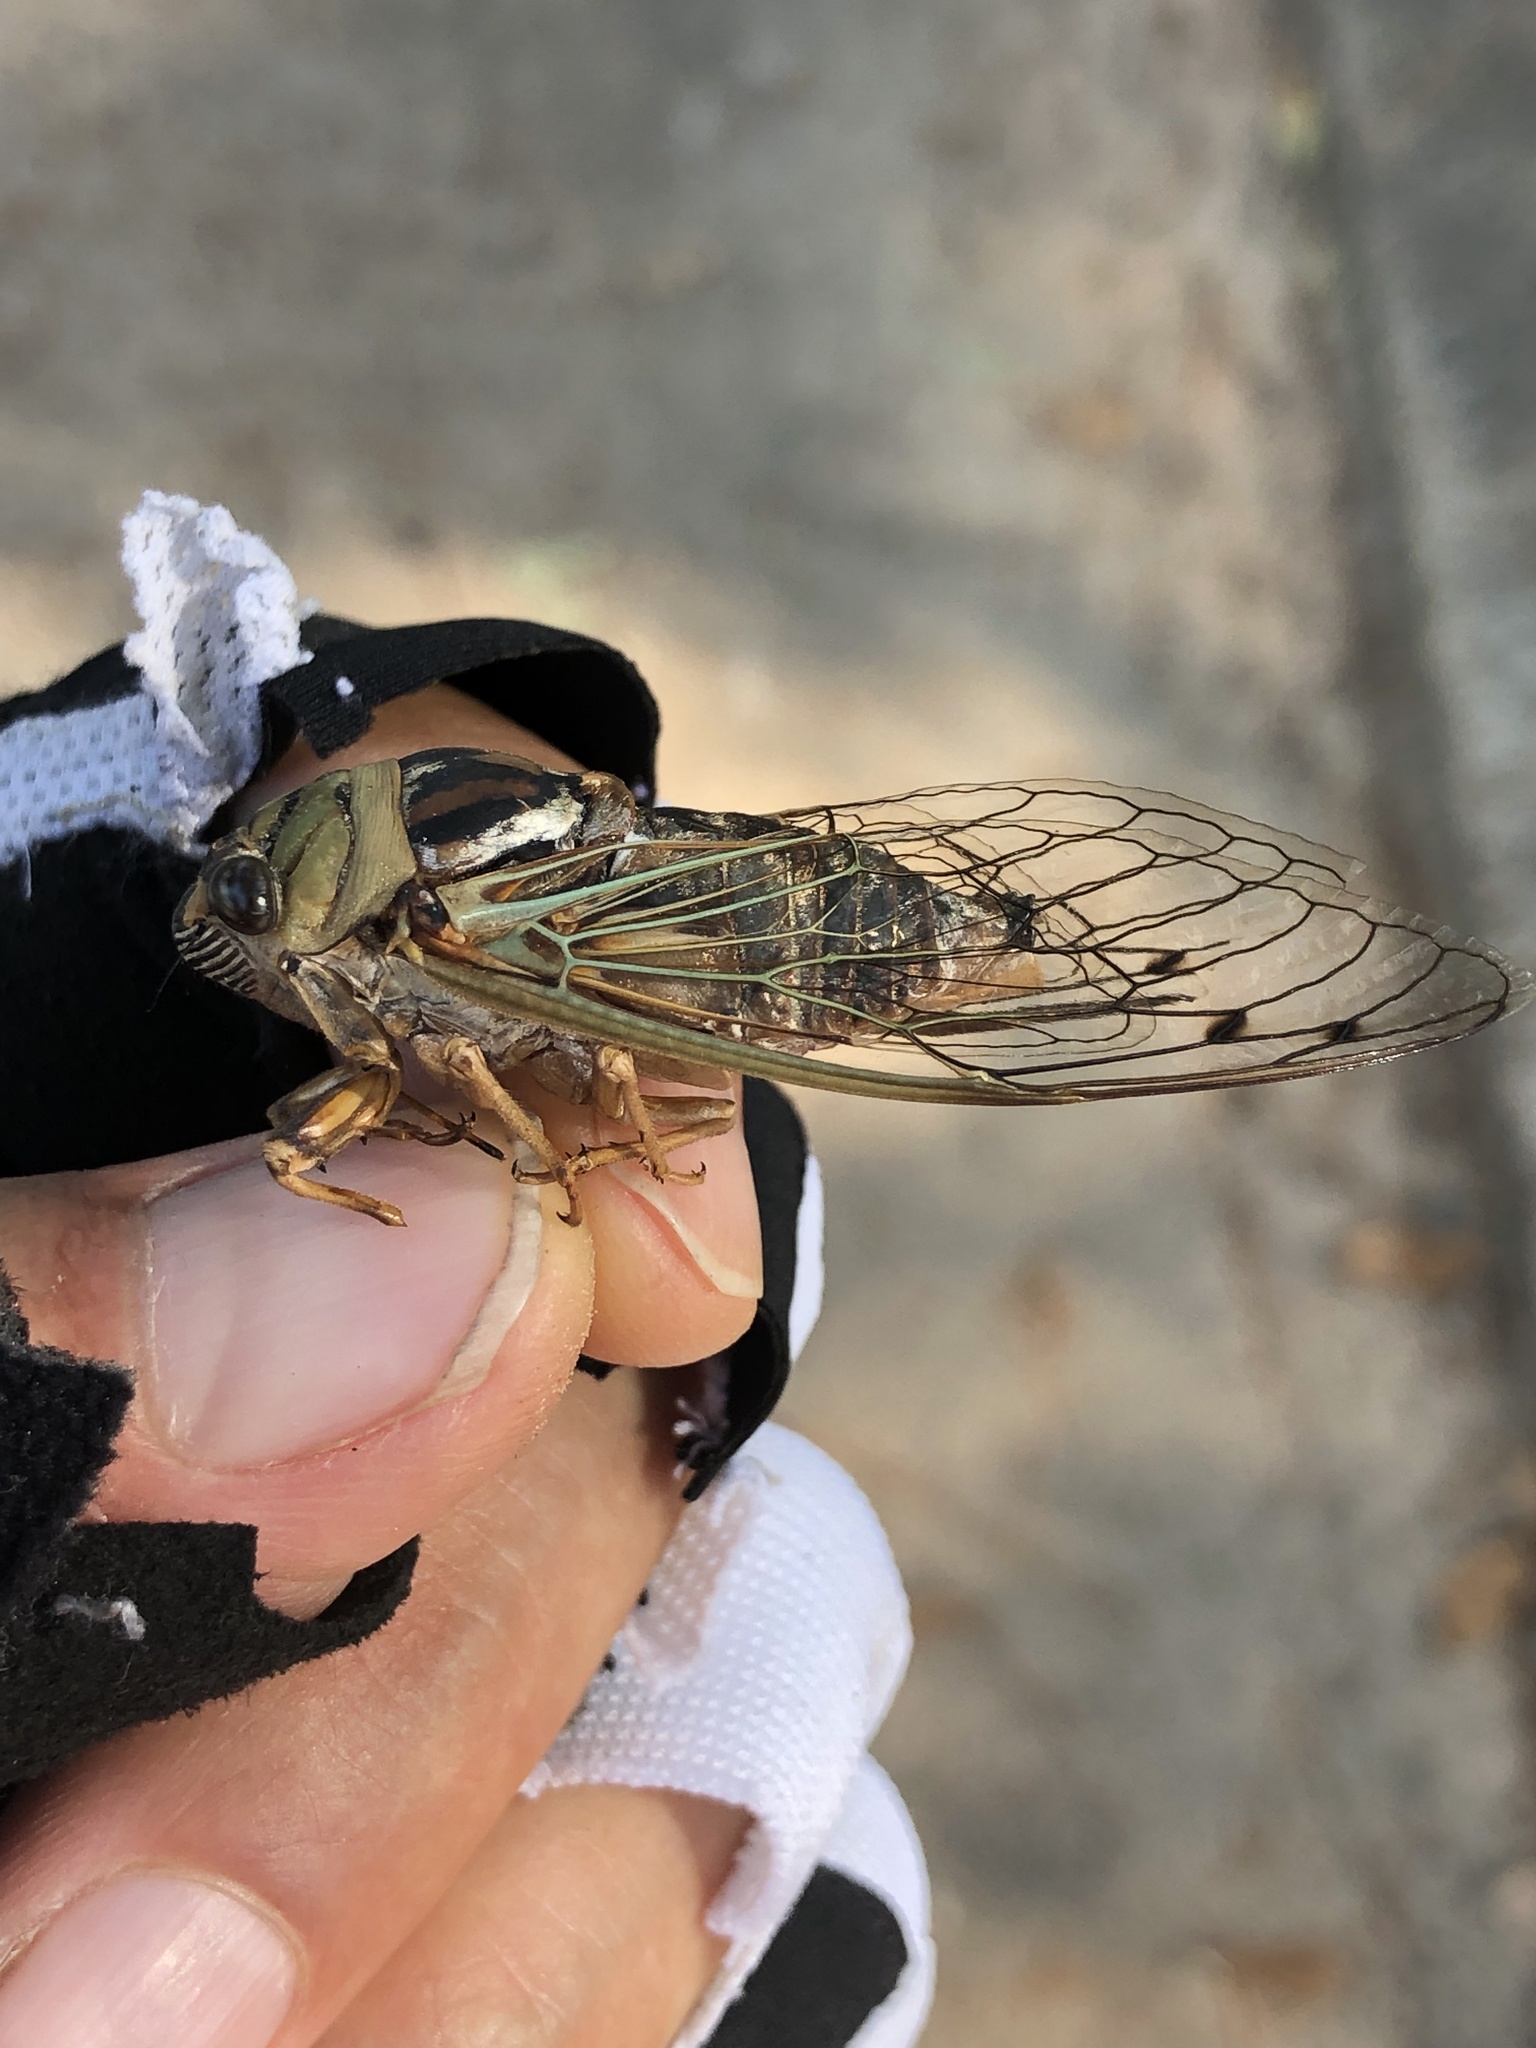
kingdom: Animalia
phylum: Arthropoda
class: Insecta
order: Hemiptera
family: Cicadidae
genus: Megatibicen
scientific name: Megatibicen resh
